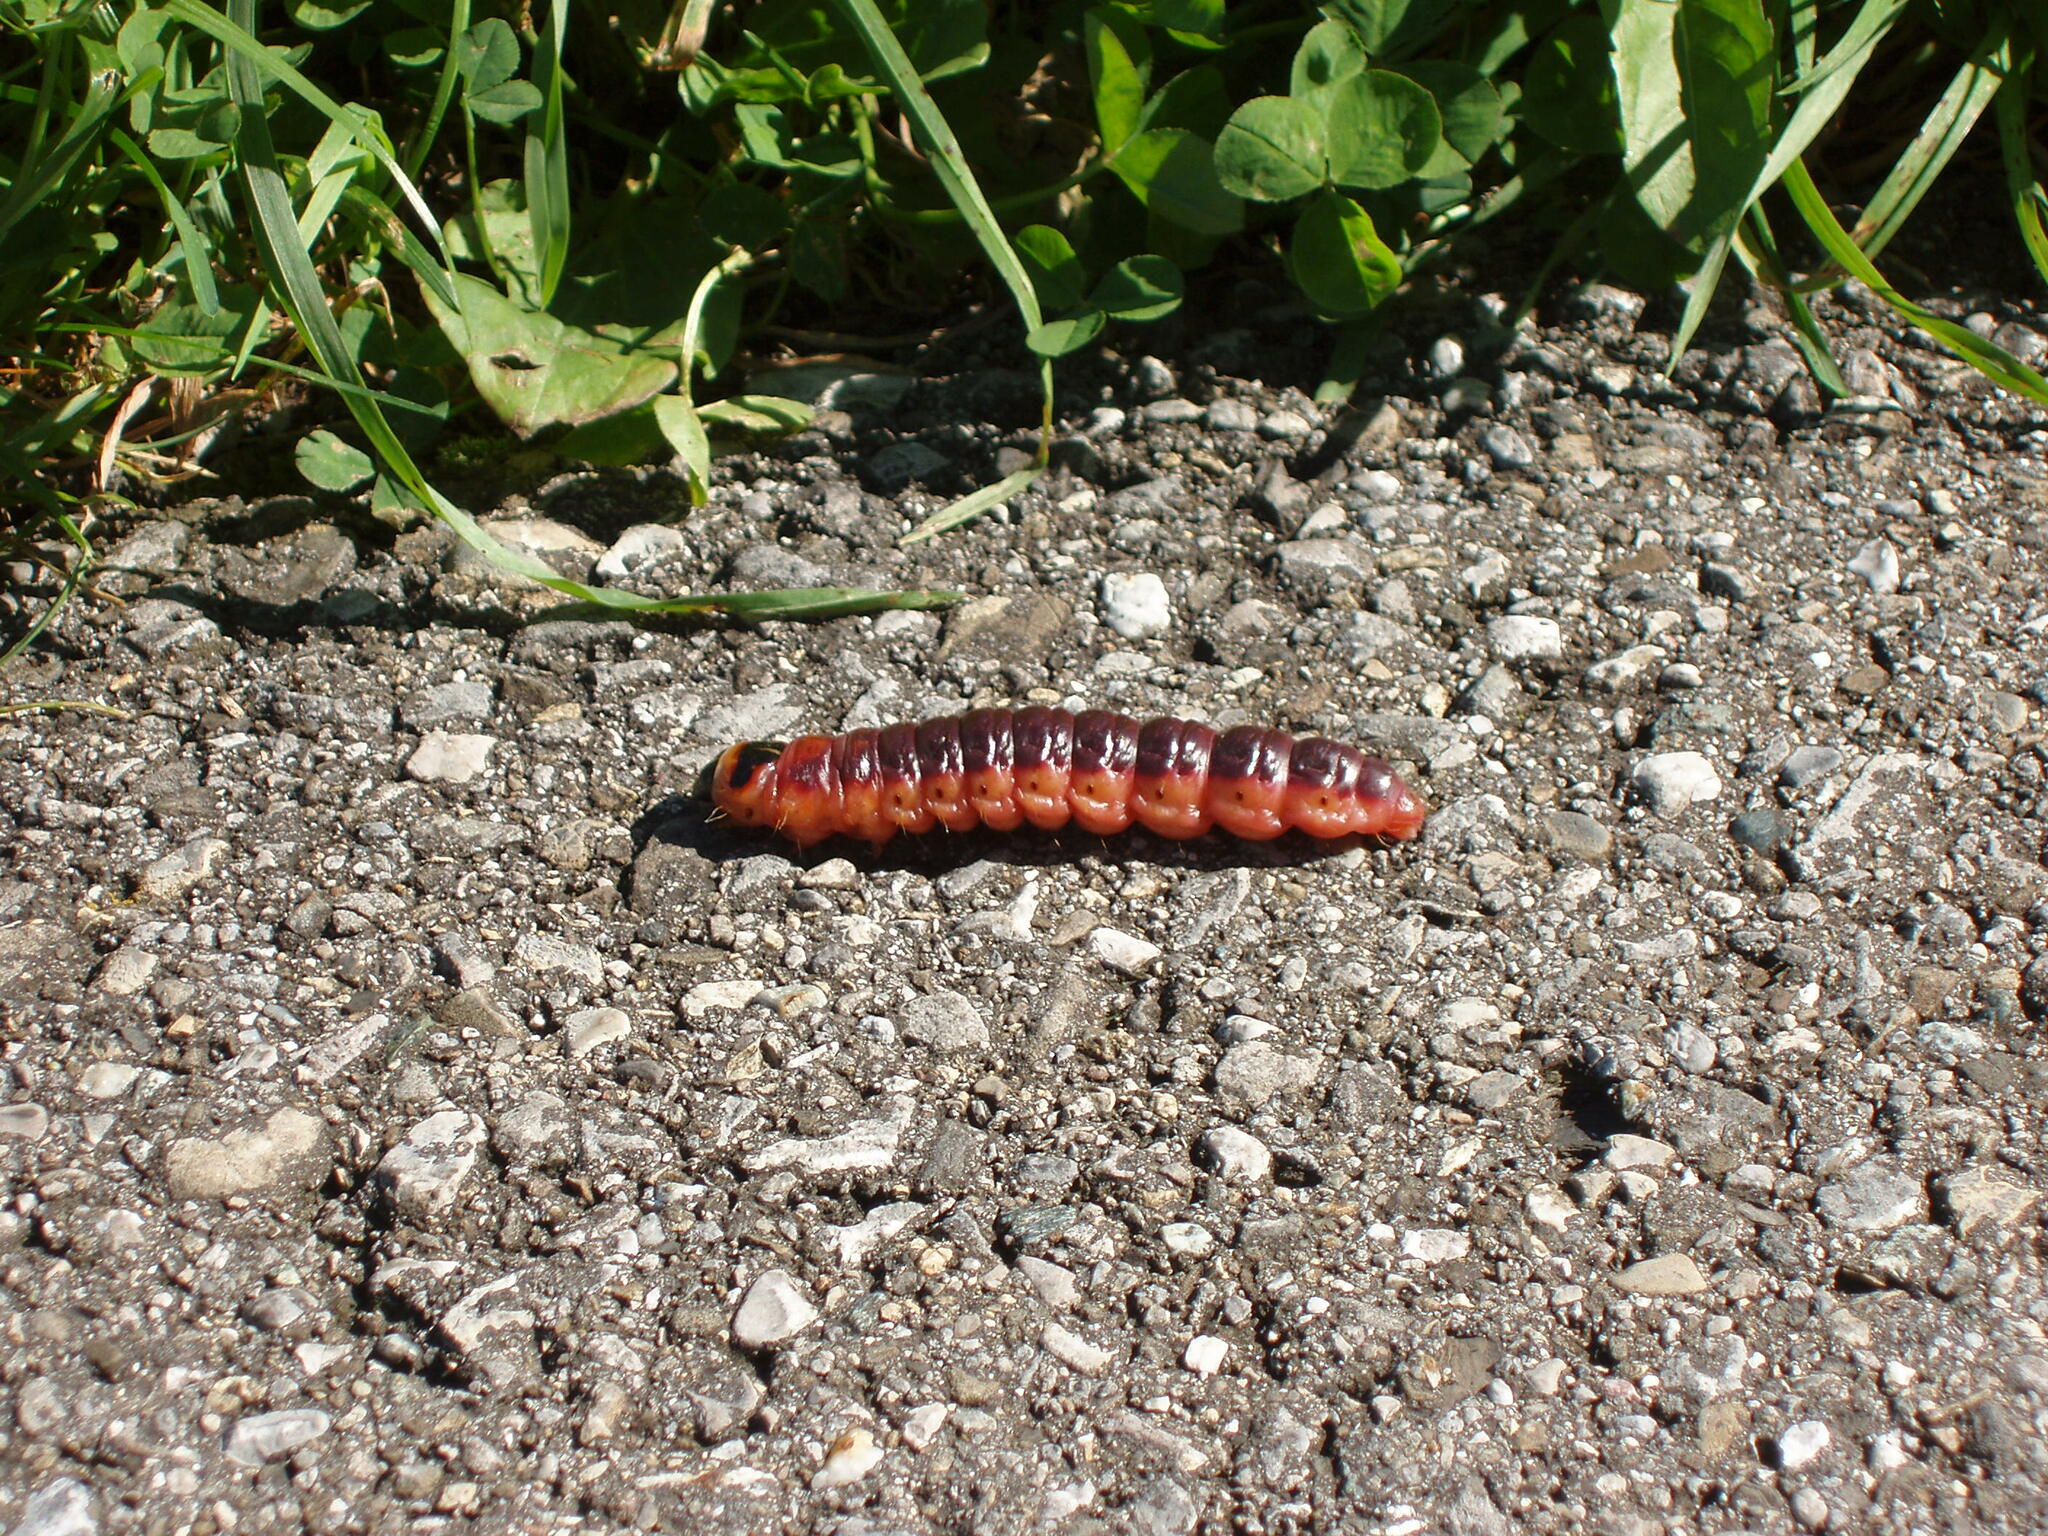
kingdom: Animalia
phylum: Arthropoda
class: Insecta
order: Lepidoptera
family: Cossidae
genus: Cossus
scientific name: Cossus cossus
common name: Goat moth
